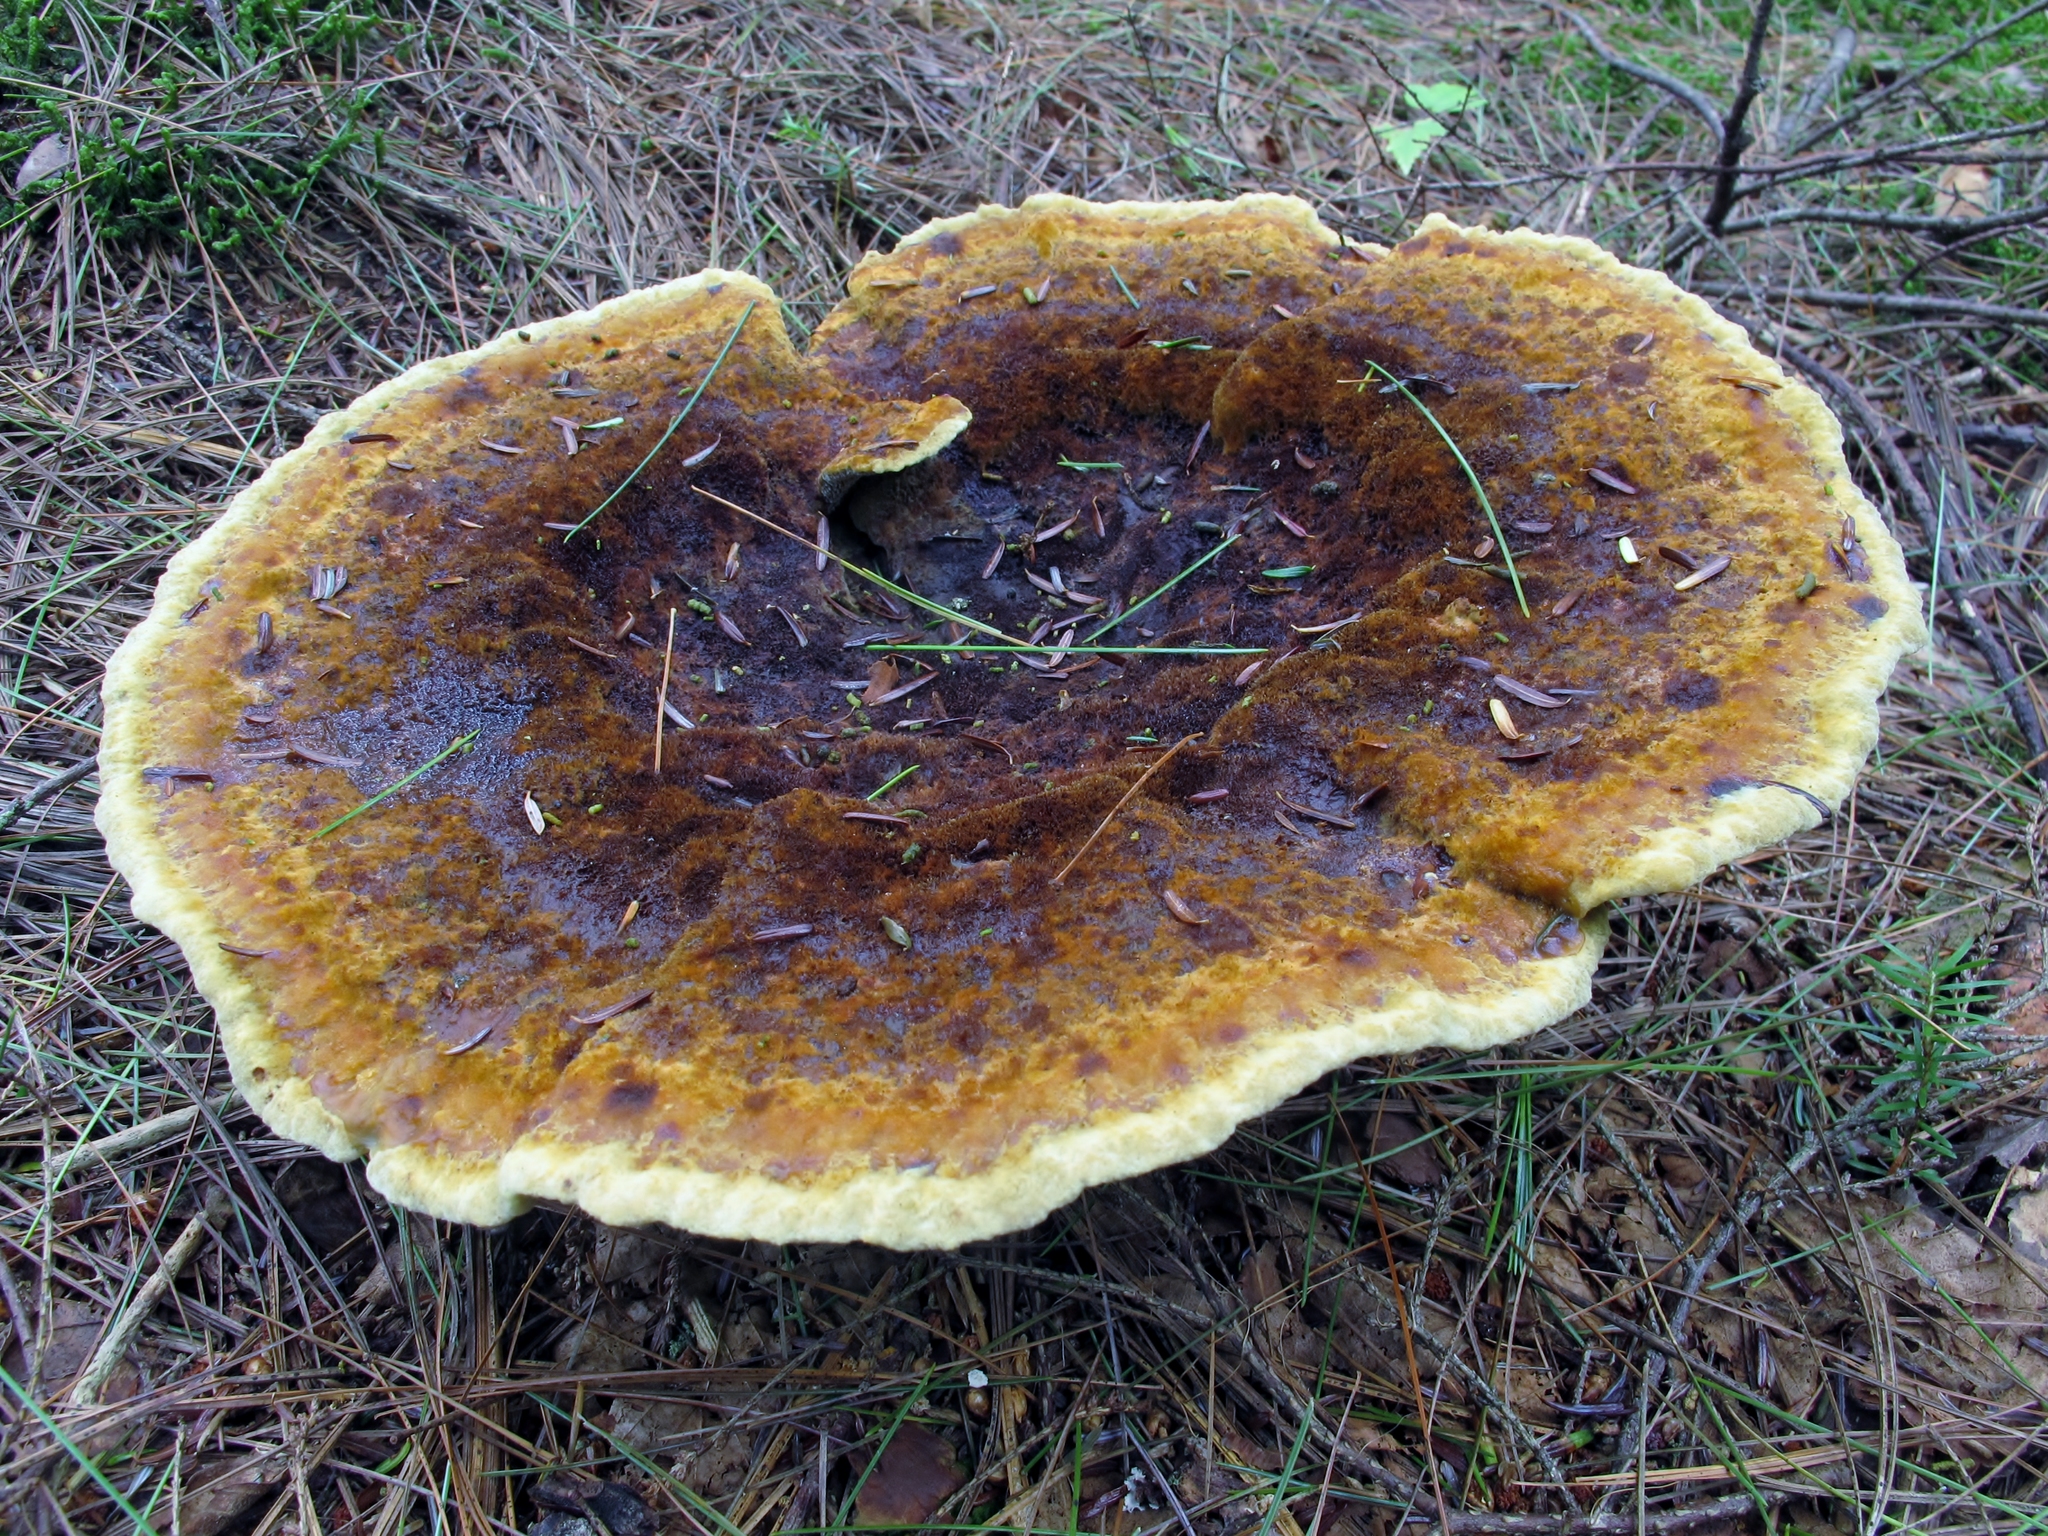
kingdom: Fungi
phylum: Basidiomycota
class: Agaricomycetes
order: Polyporales
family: Laetiporaceae
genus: Phaeolus
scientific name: Phaeolus schweinitzii
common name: Dyer's mazegill
